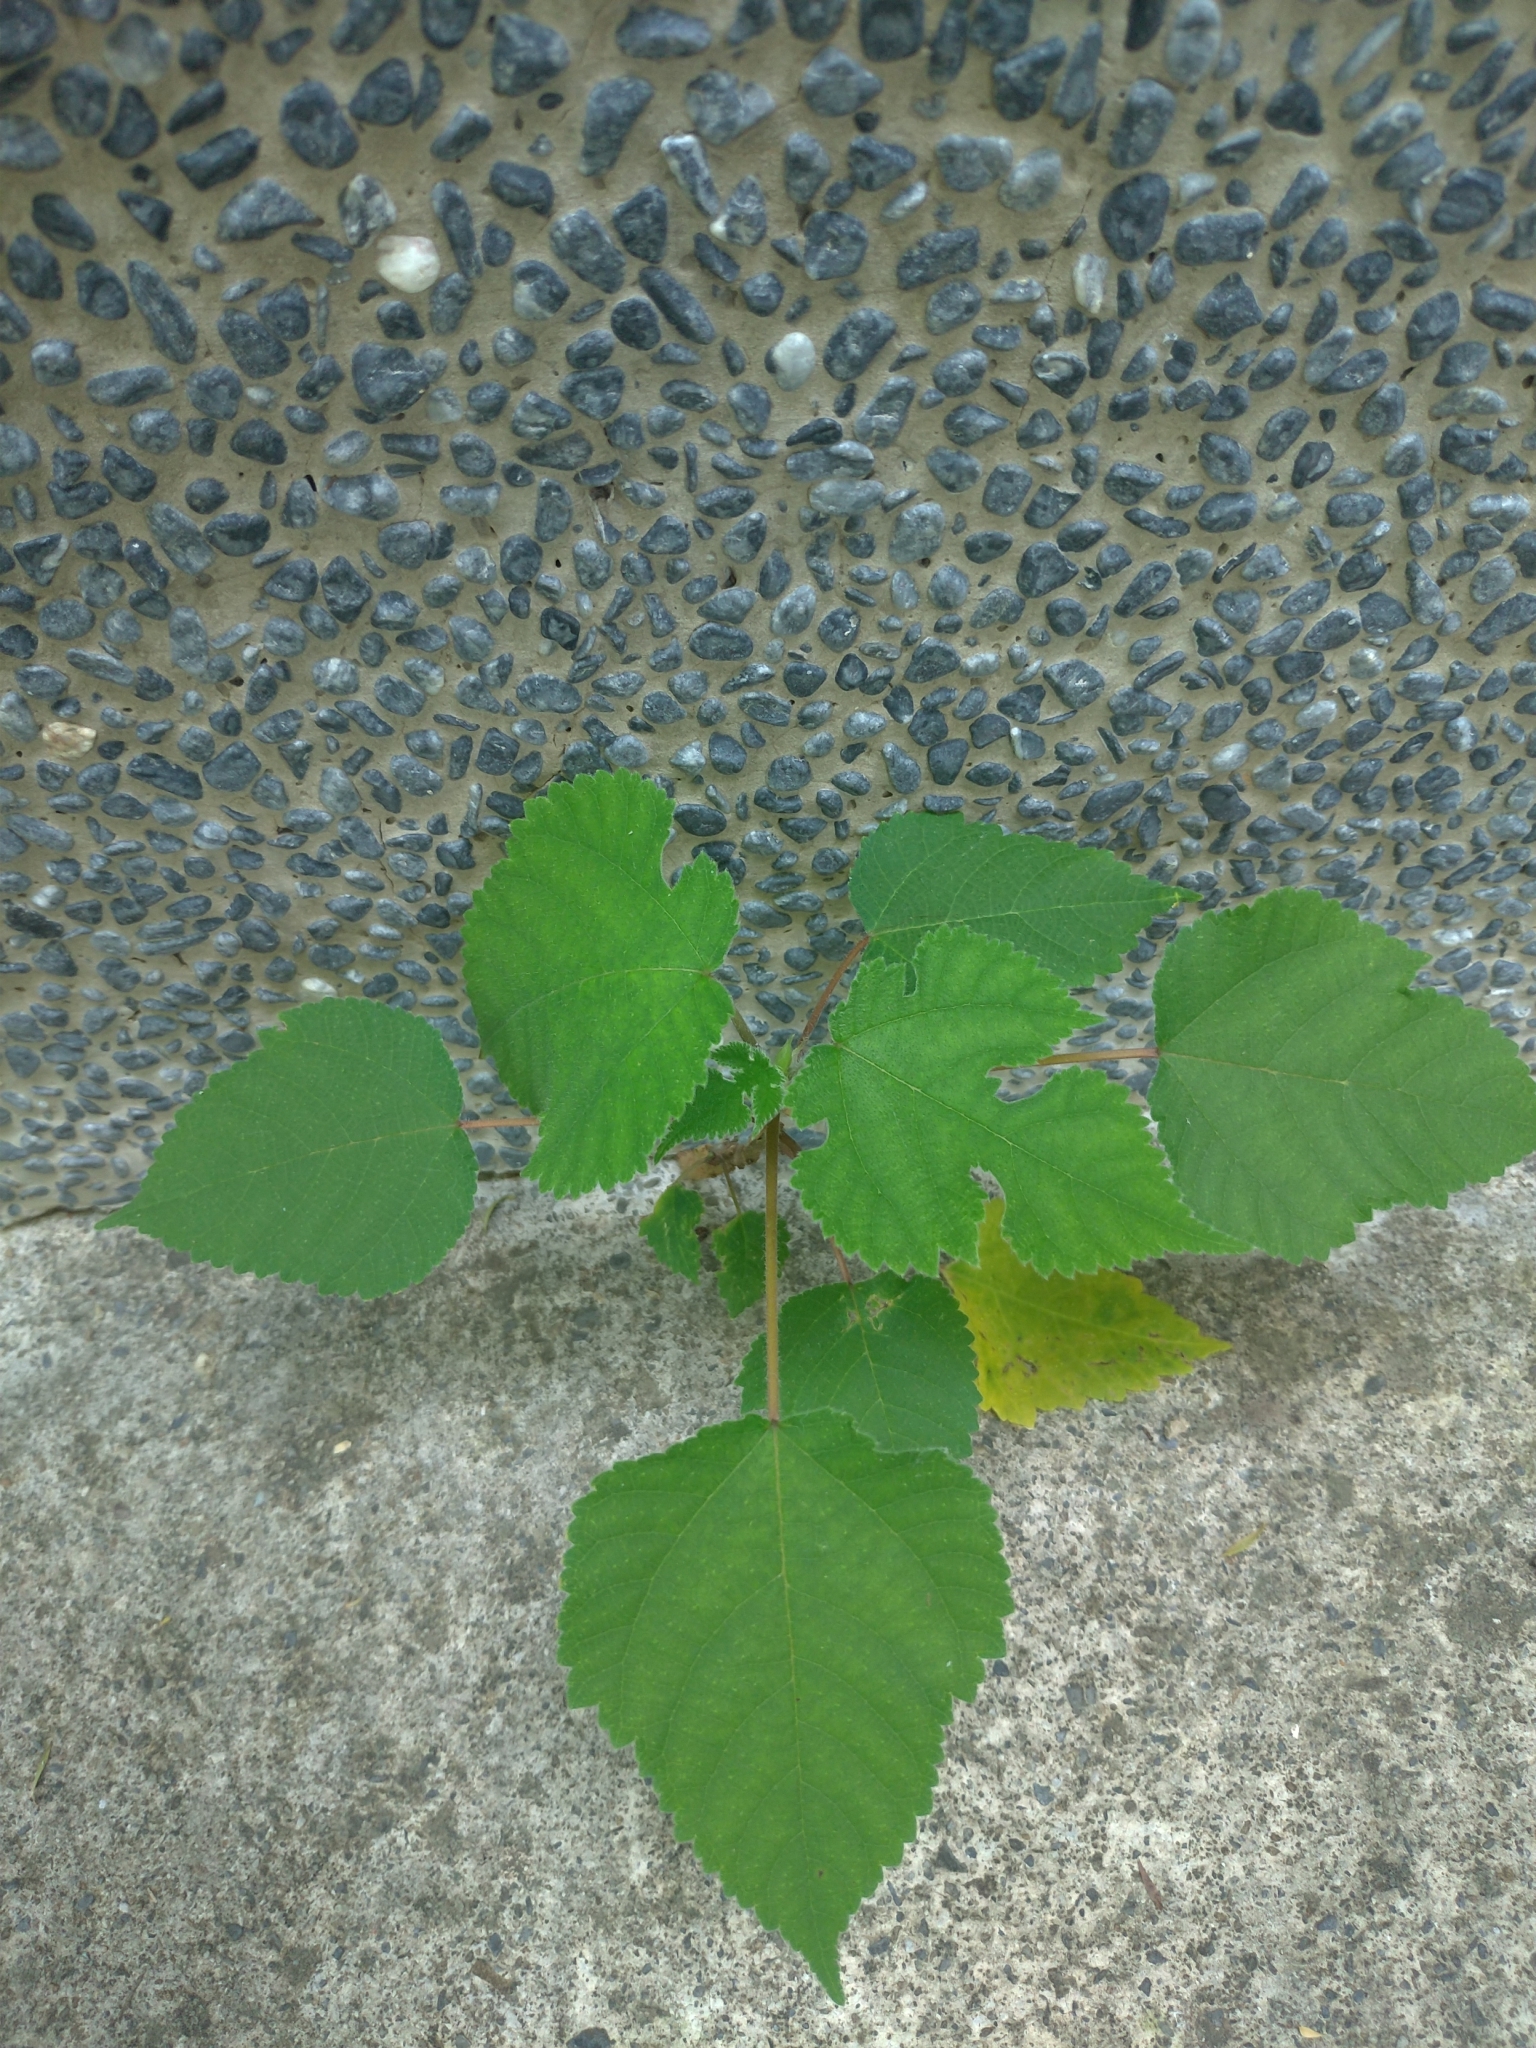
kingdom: Plantae
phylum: Tracheophyta
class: Magnoliopsida
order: Rosales
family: Moraceae
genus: Broussonetia
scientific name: Broussonetia papyrifera
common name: Paper mulberry
